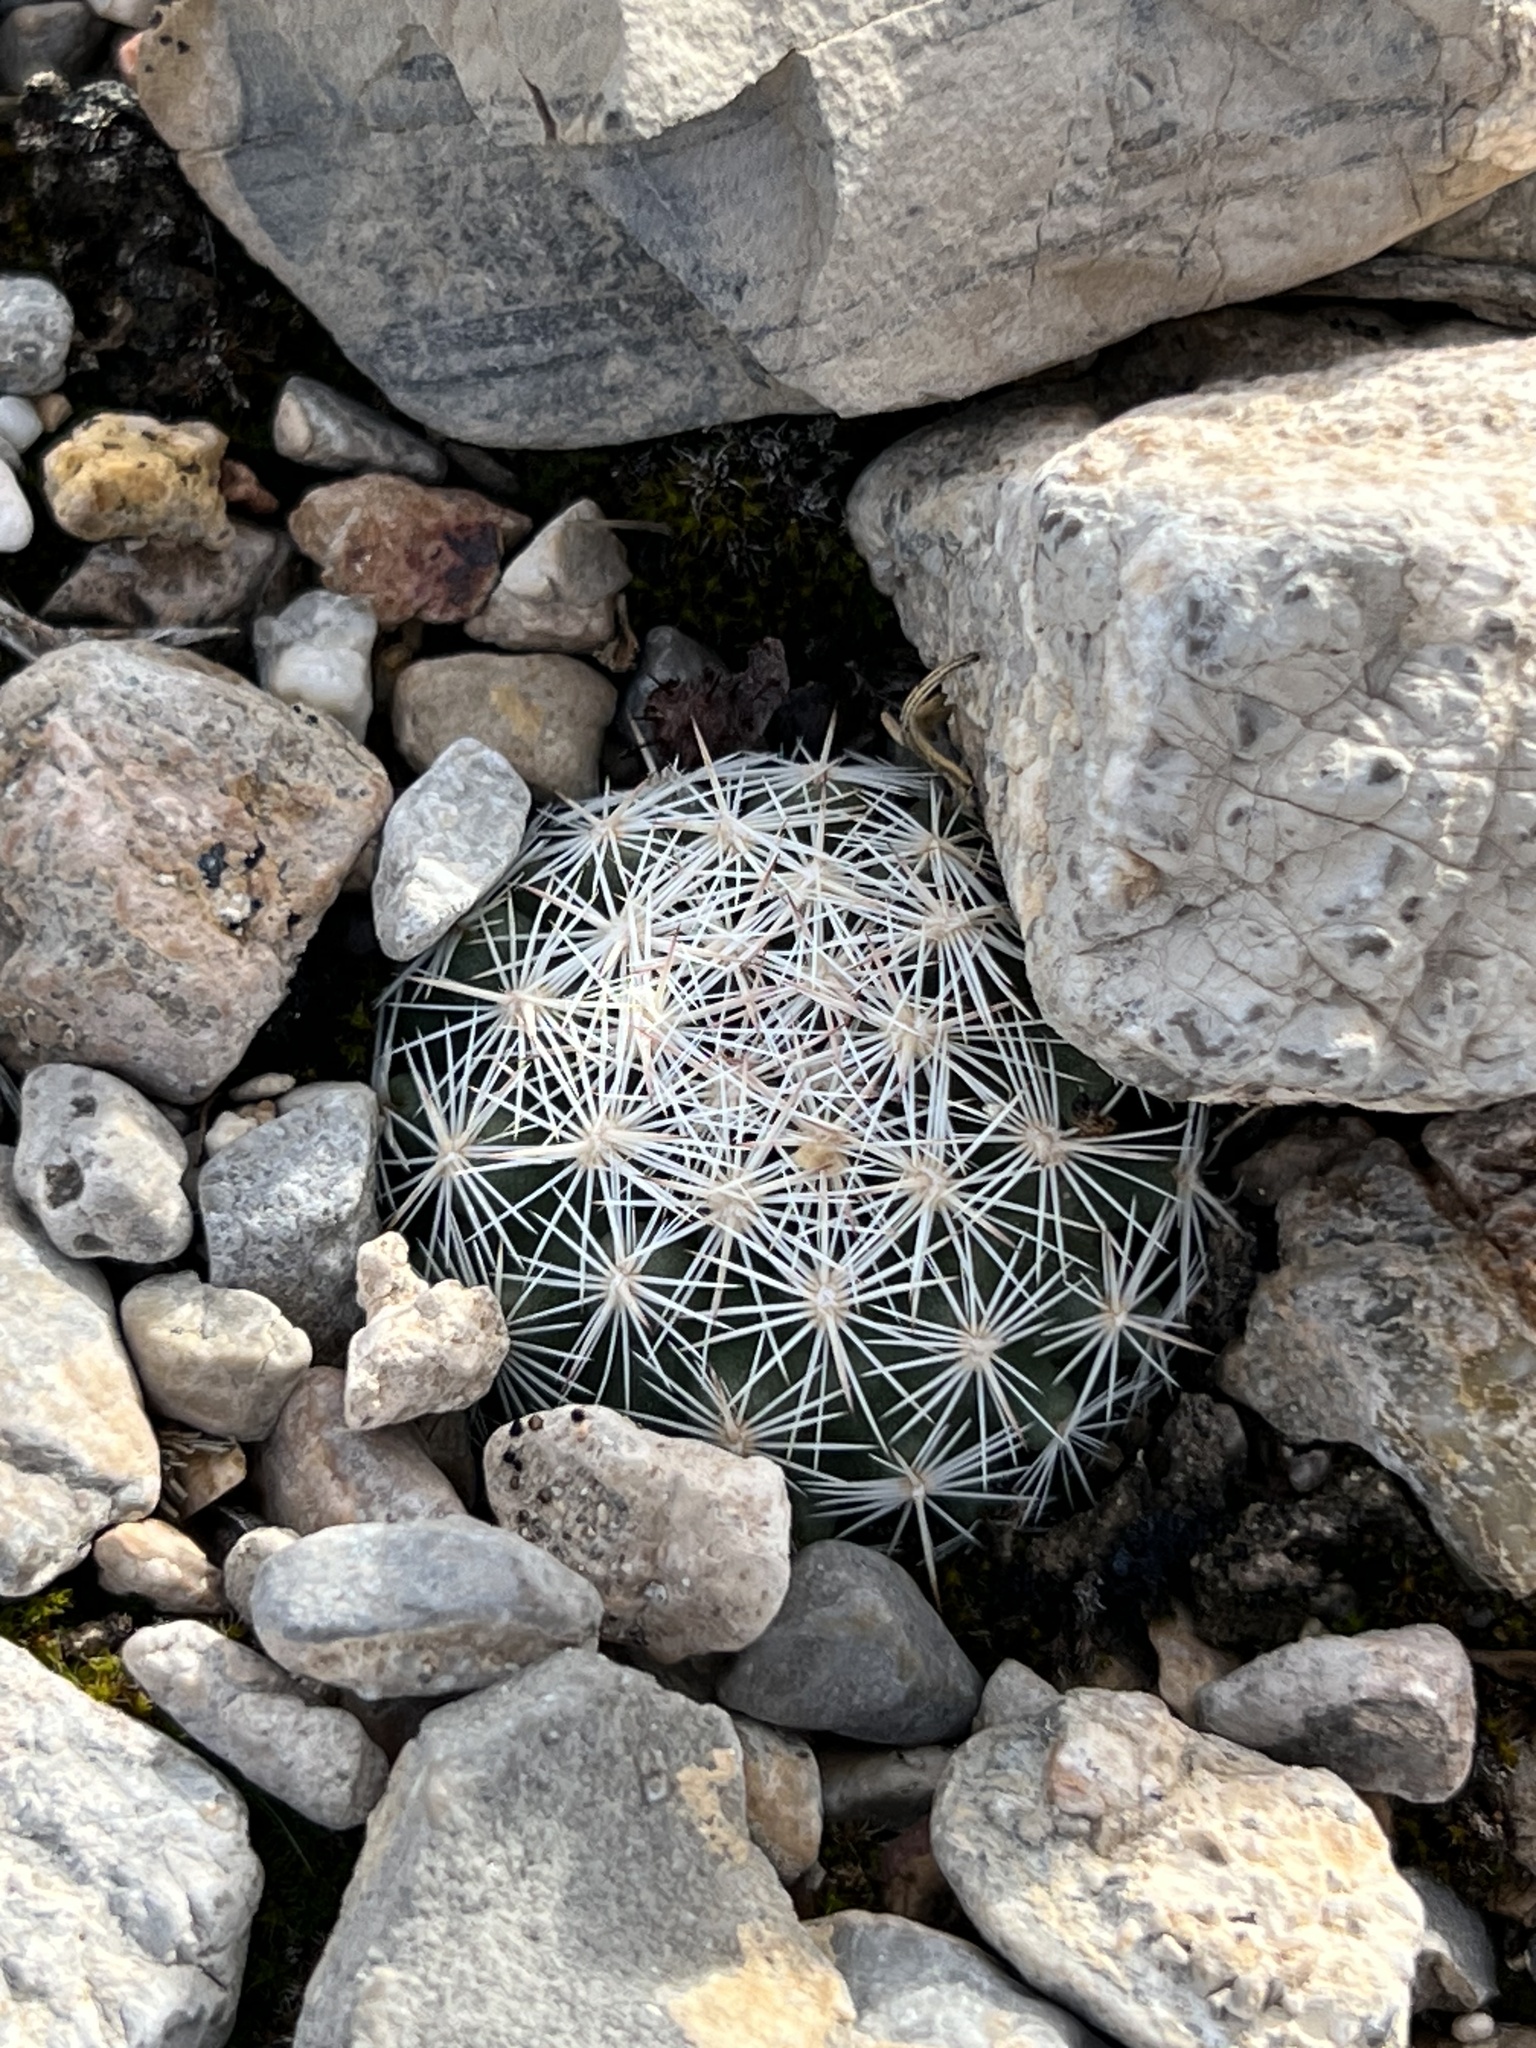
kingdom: Plantae
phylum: Tracheophyta
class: Magnoliopsida
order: Caryophyllales
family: Cactaceae
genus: Pelecyphora
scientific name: Pelecyphora dasyacantha
